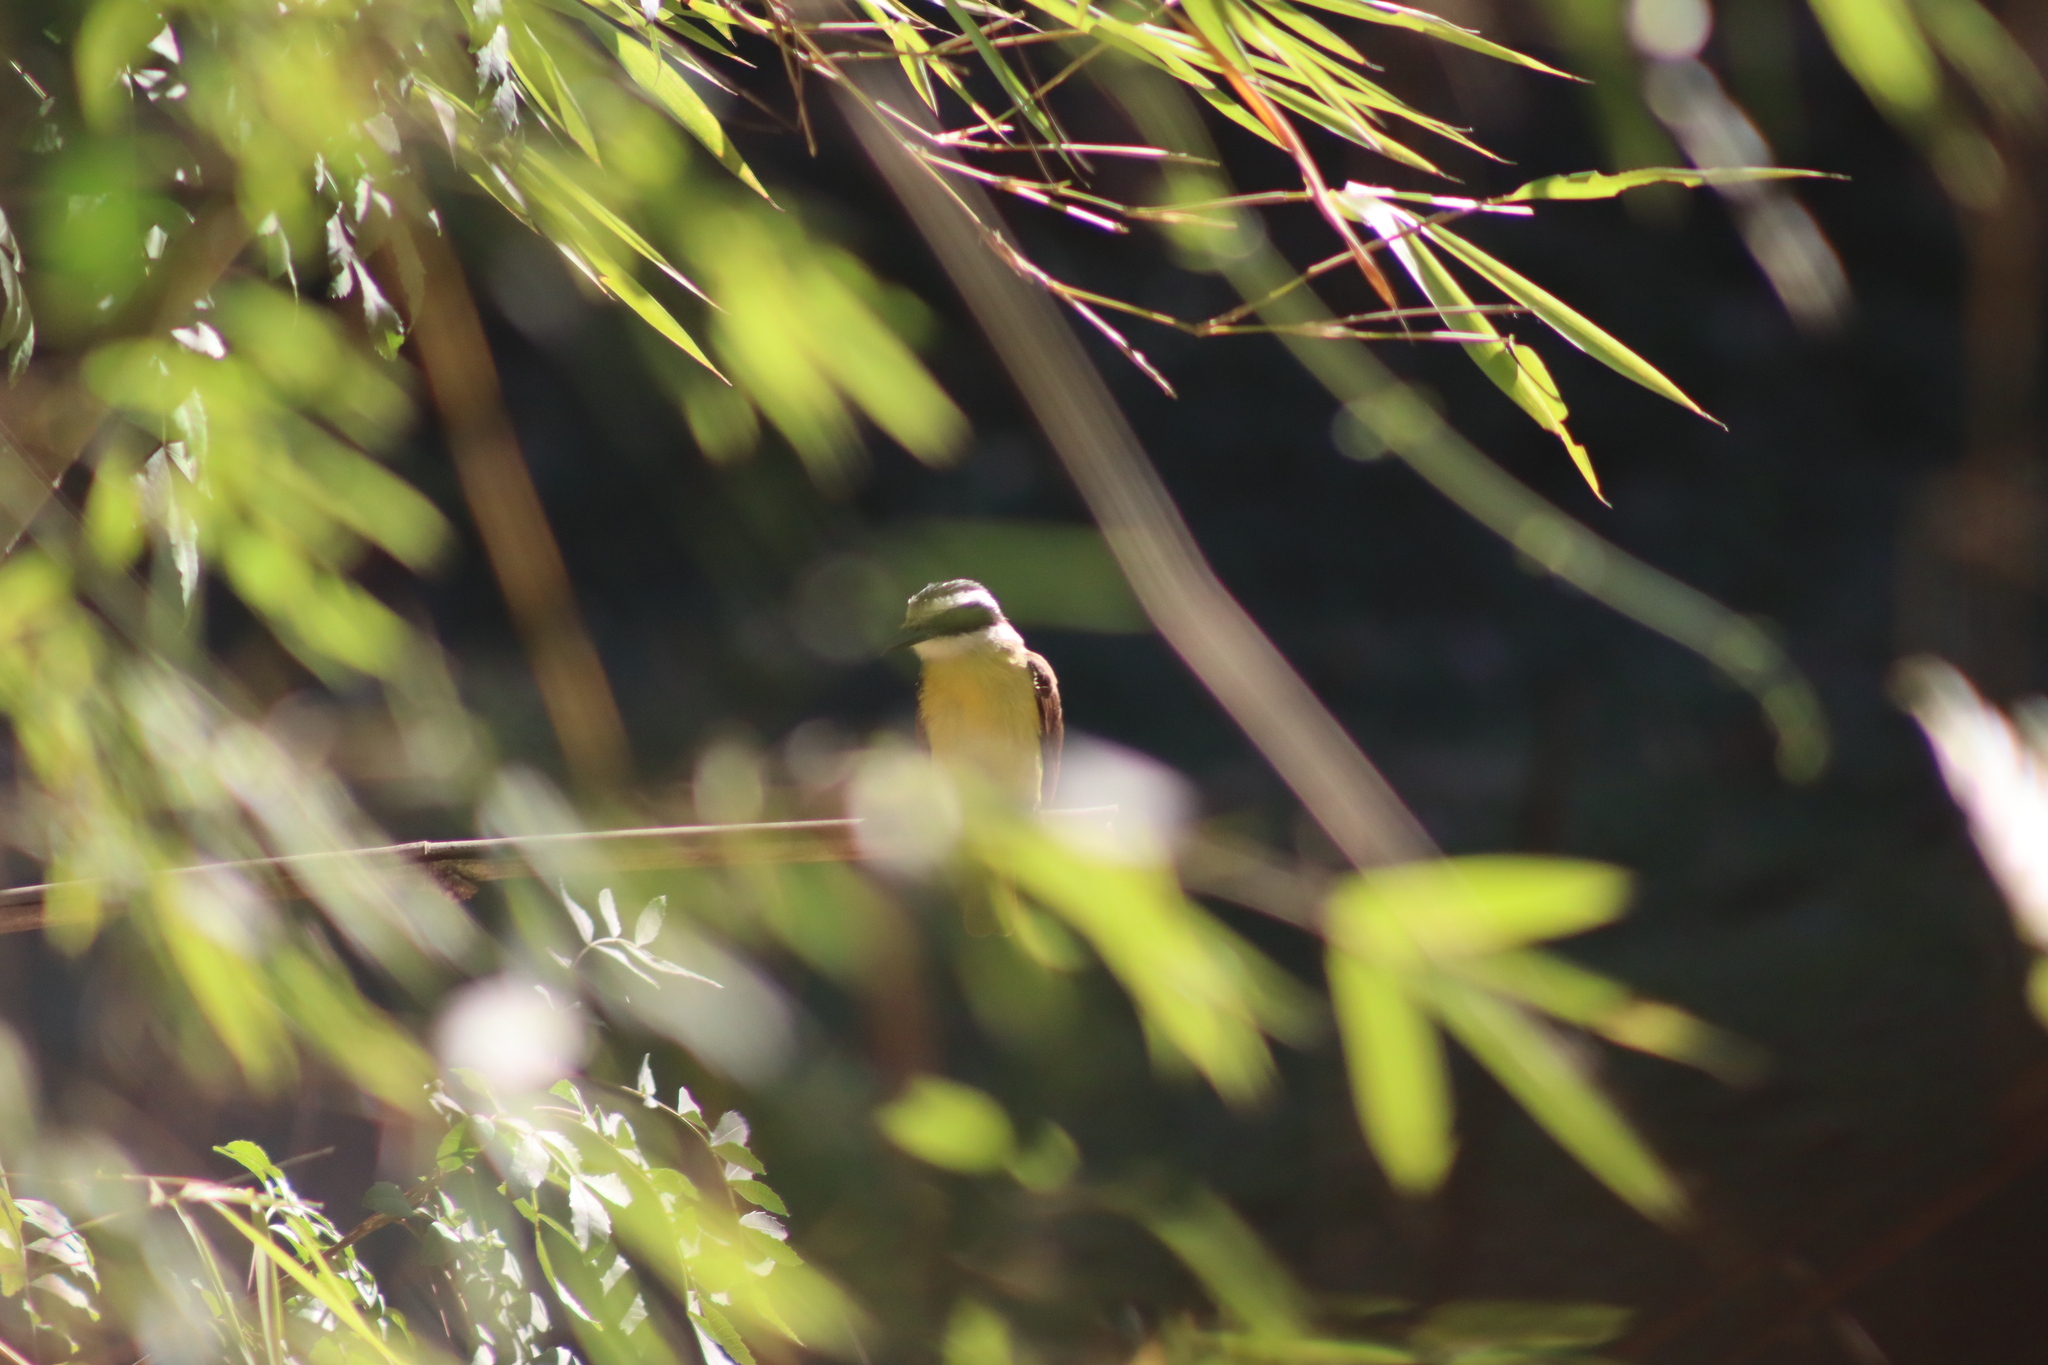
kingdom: Animalia
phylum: Chordata
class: Aves
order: Passeriformes
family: Tyrannidae
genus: Pitangus
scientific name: Pitangus sulphuratus
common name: Great kiskadee
